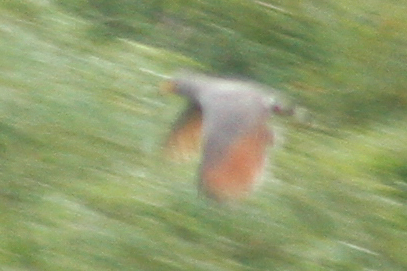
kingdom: Animalia
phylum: Chordata
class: Aves
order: Accipitriformes
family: Accipitridae
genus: Rupornis
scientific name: Rupornis magnirostris
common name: Roadside hawk
